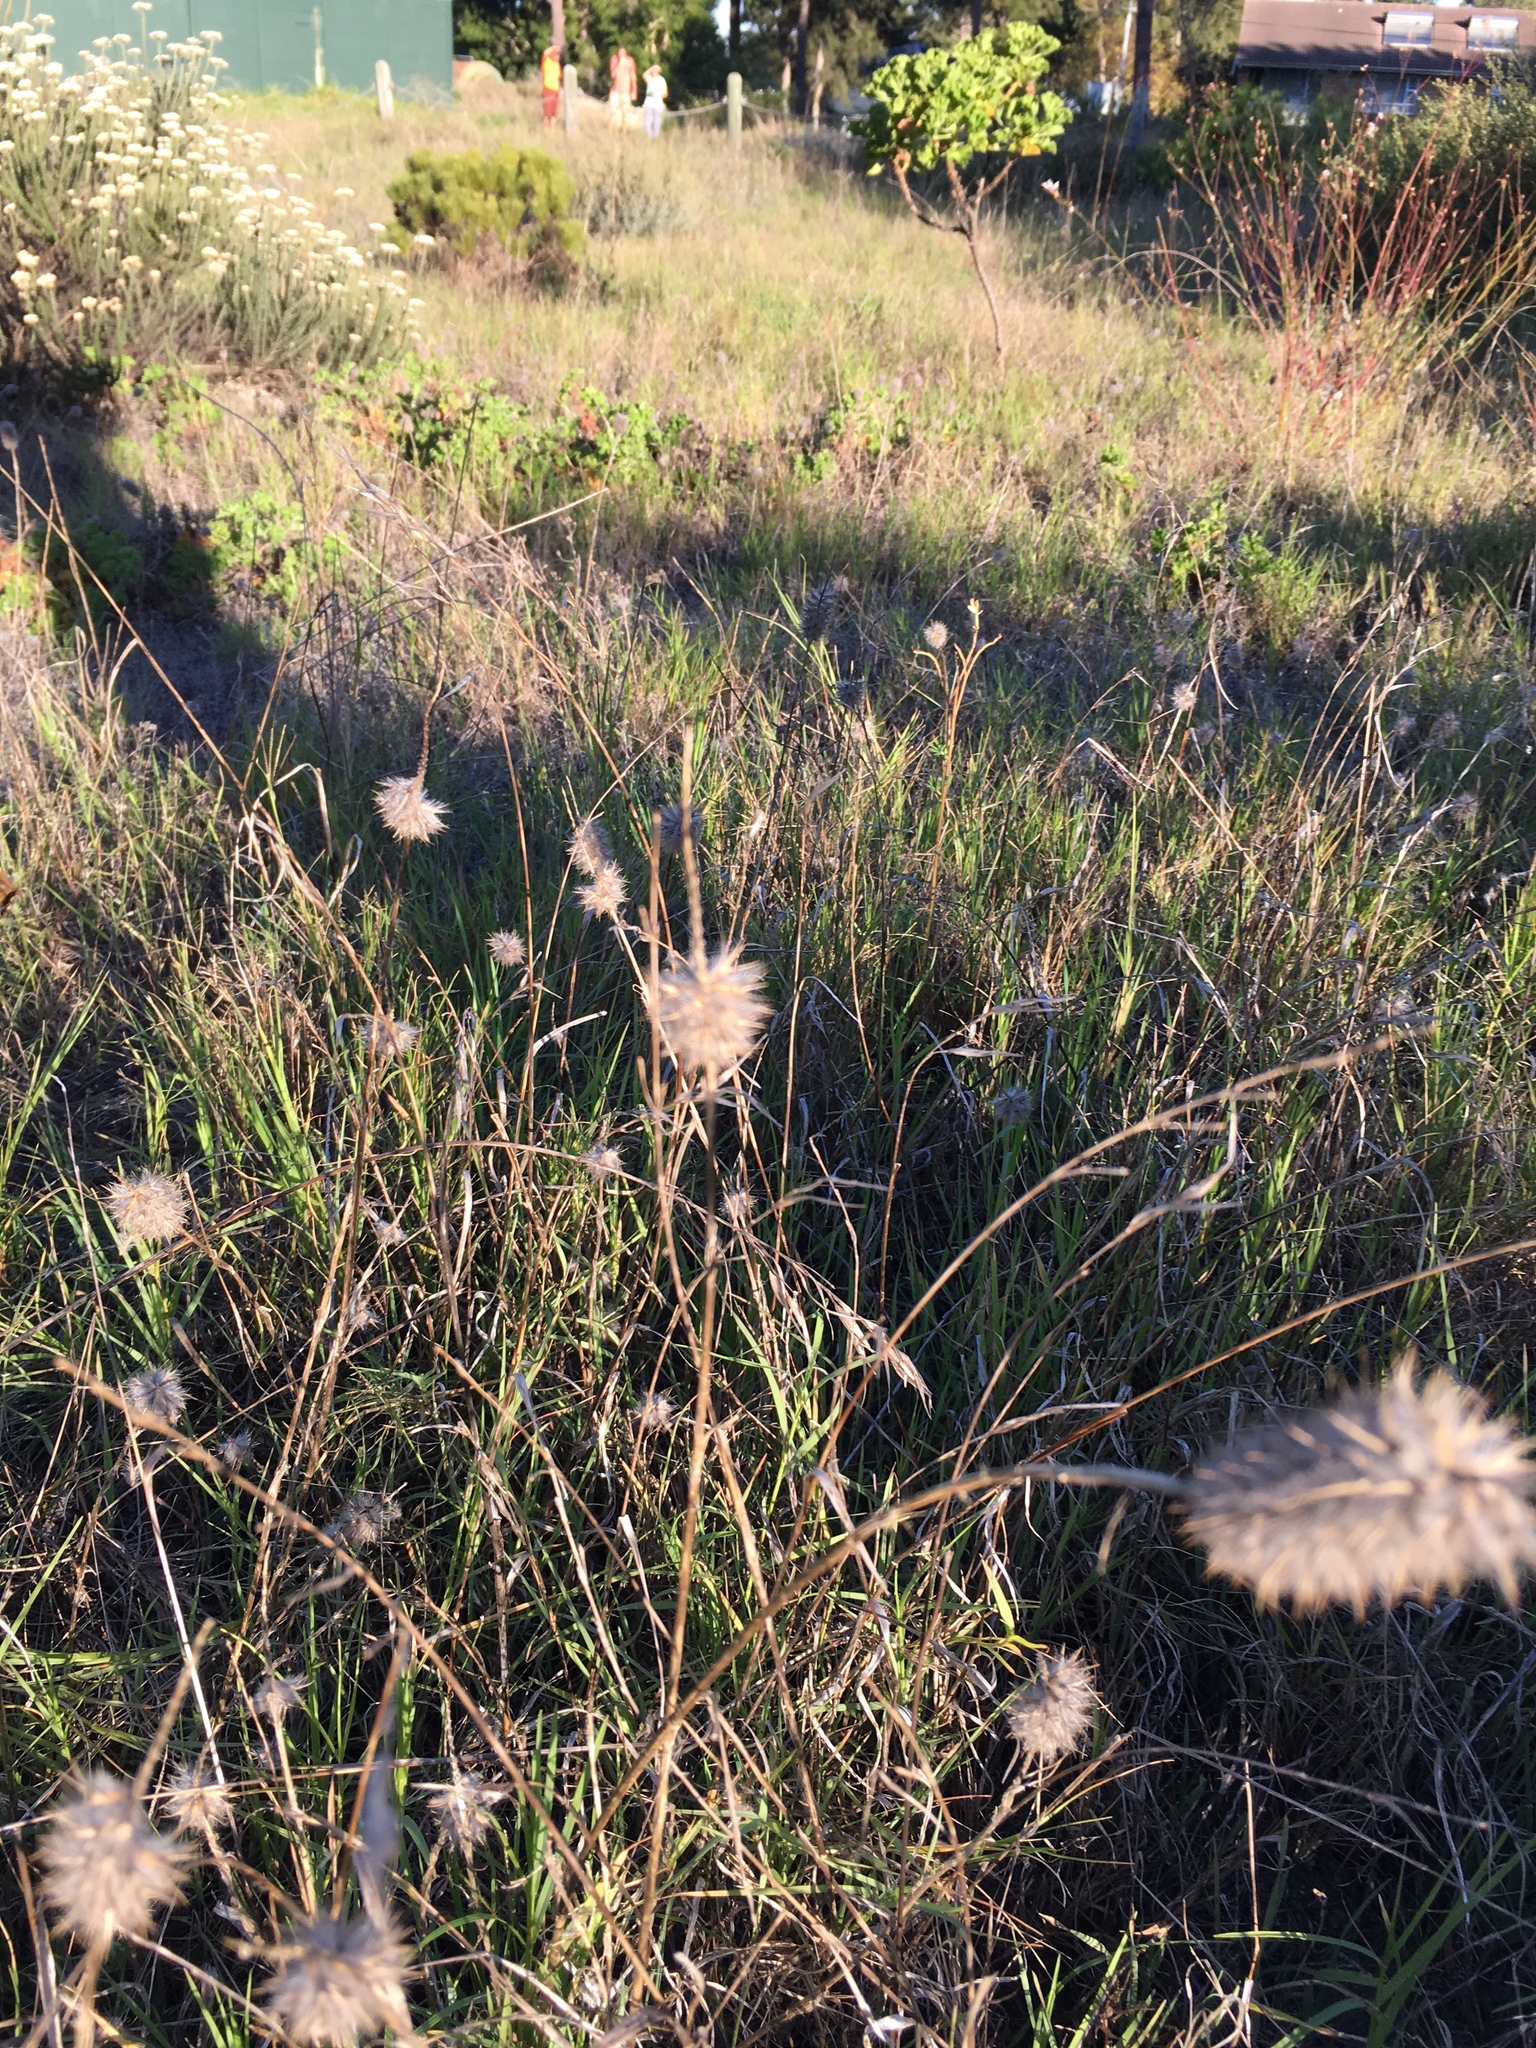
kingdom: Plantae
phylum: Tracheophyta
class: Magnoliopsida
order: Fabales
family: Fabaceae
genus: Trifolium
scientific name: Trifolium angustifolium
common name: Narrow clover
